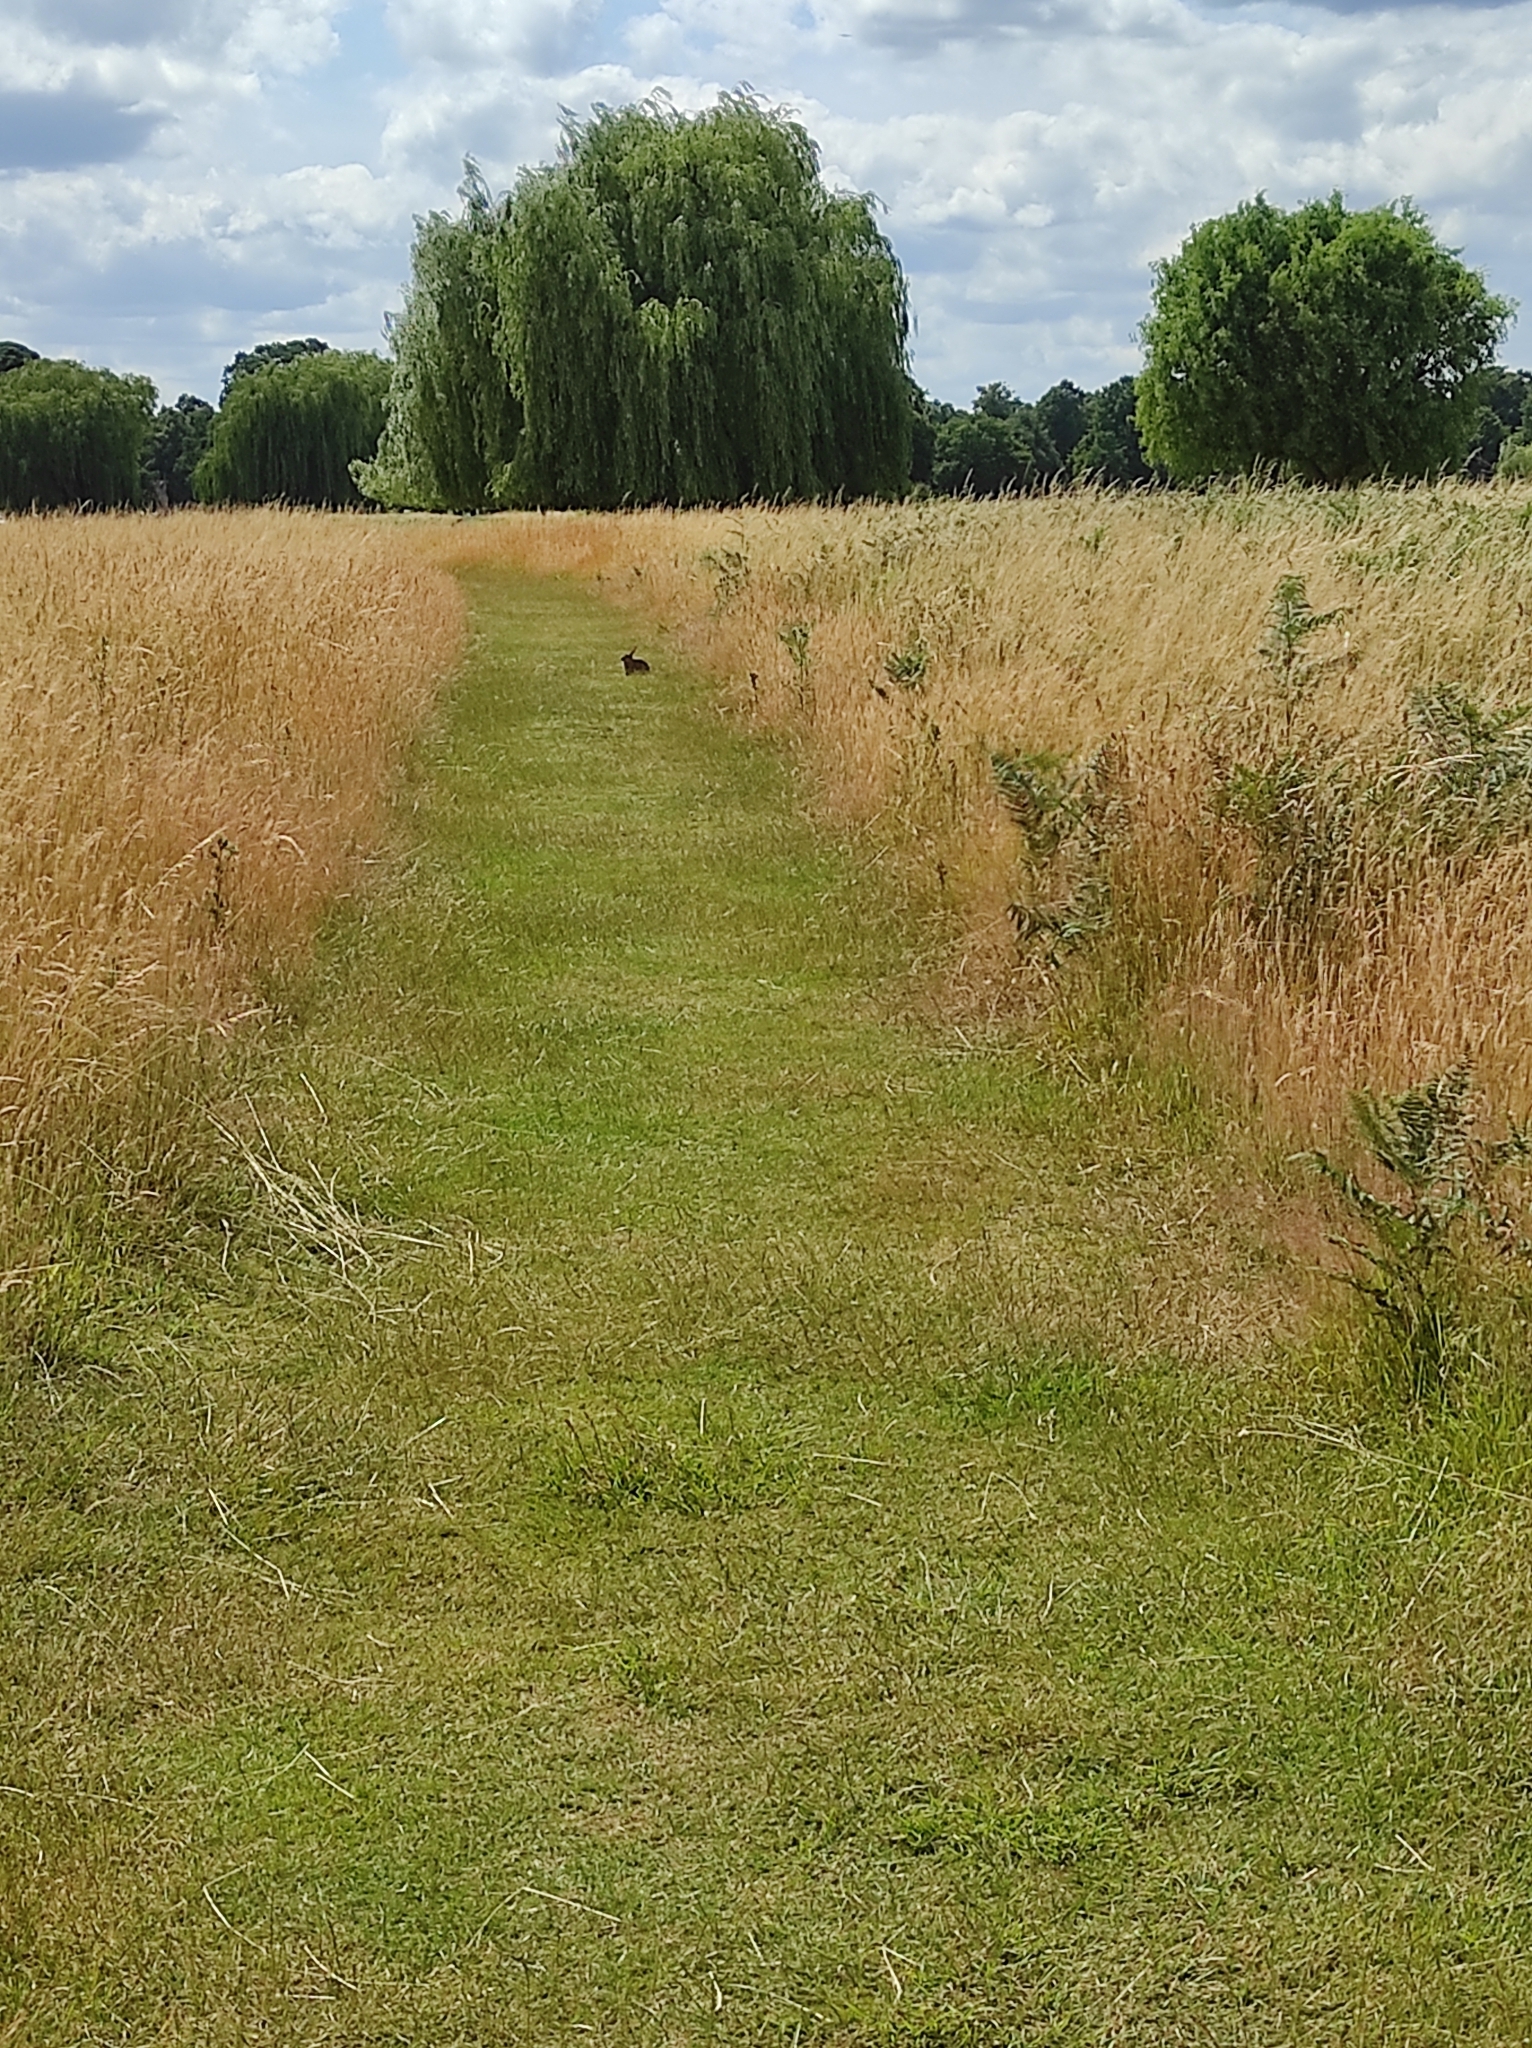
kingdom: Animalia
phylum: Chordata
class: Mammalia
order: Lagomorpha
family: Leporidae
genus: Oryctolagus
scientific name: Oryctolagus cuniculus
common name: European rabbit
